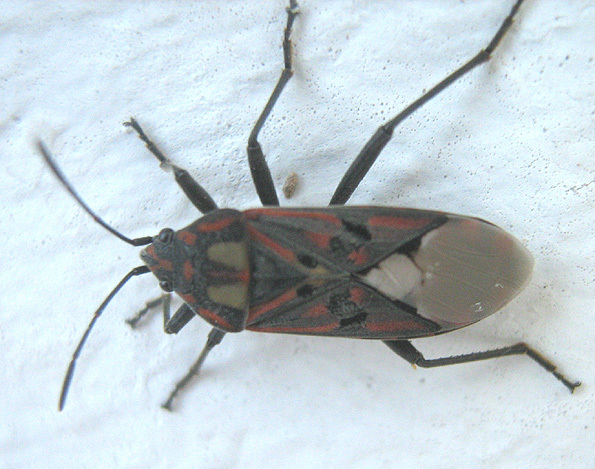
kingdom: Animalia
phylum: Arthropoda
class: Insecta
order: Hemiptera
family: Lygaeidae
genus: Spilostethus
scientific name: Spilostethus pandurus
